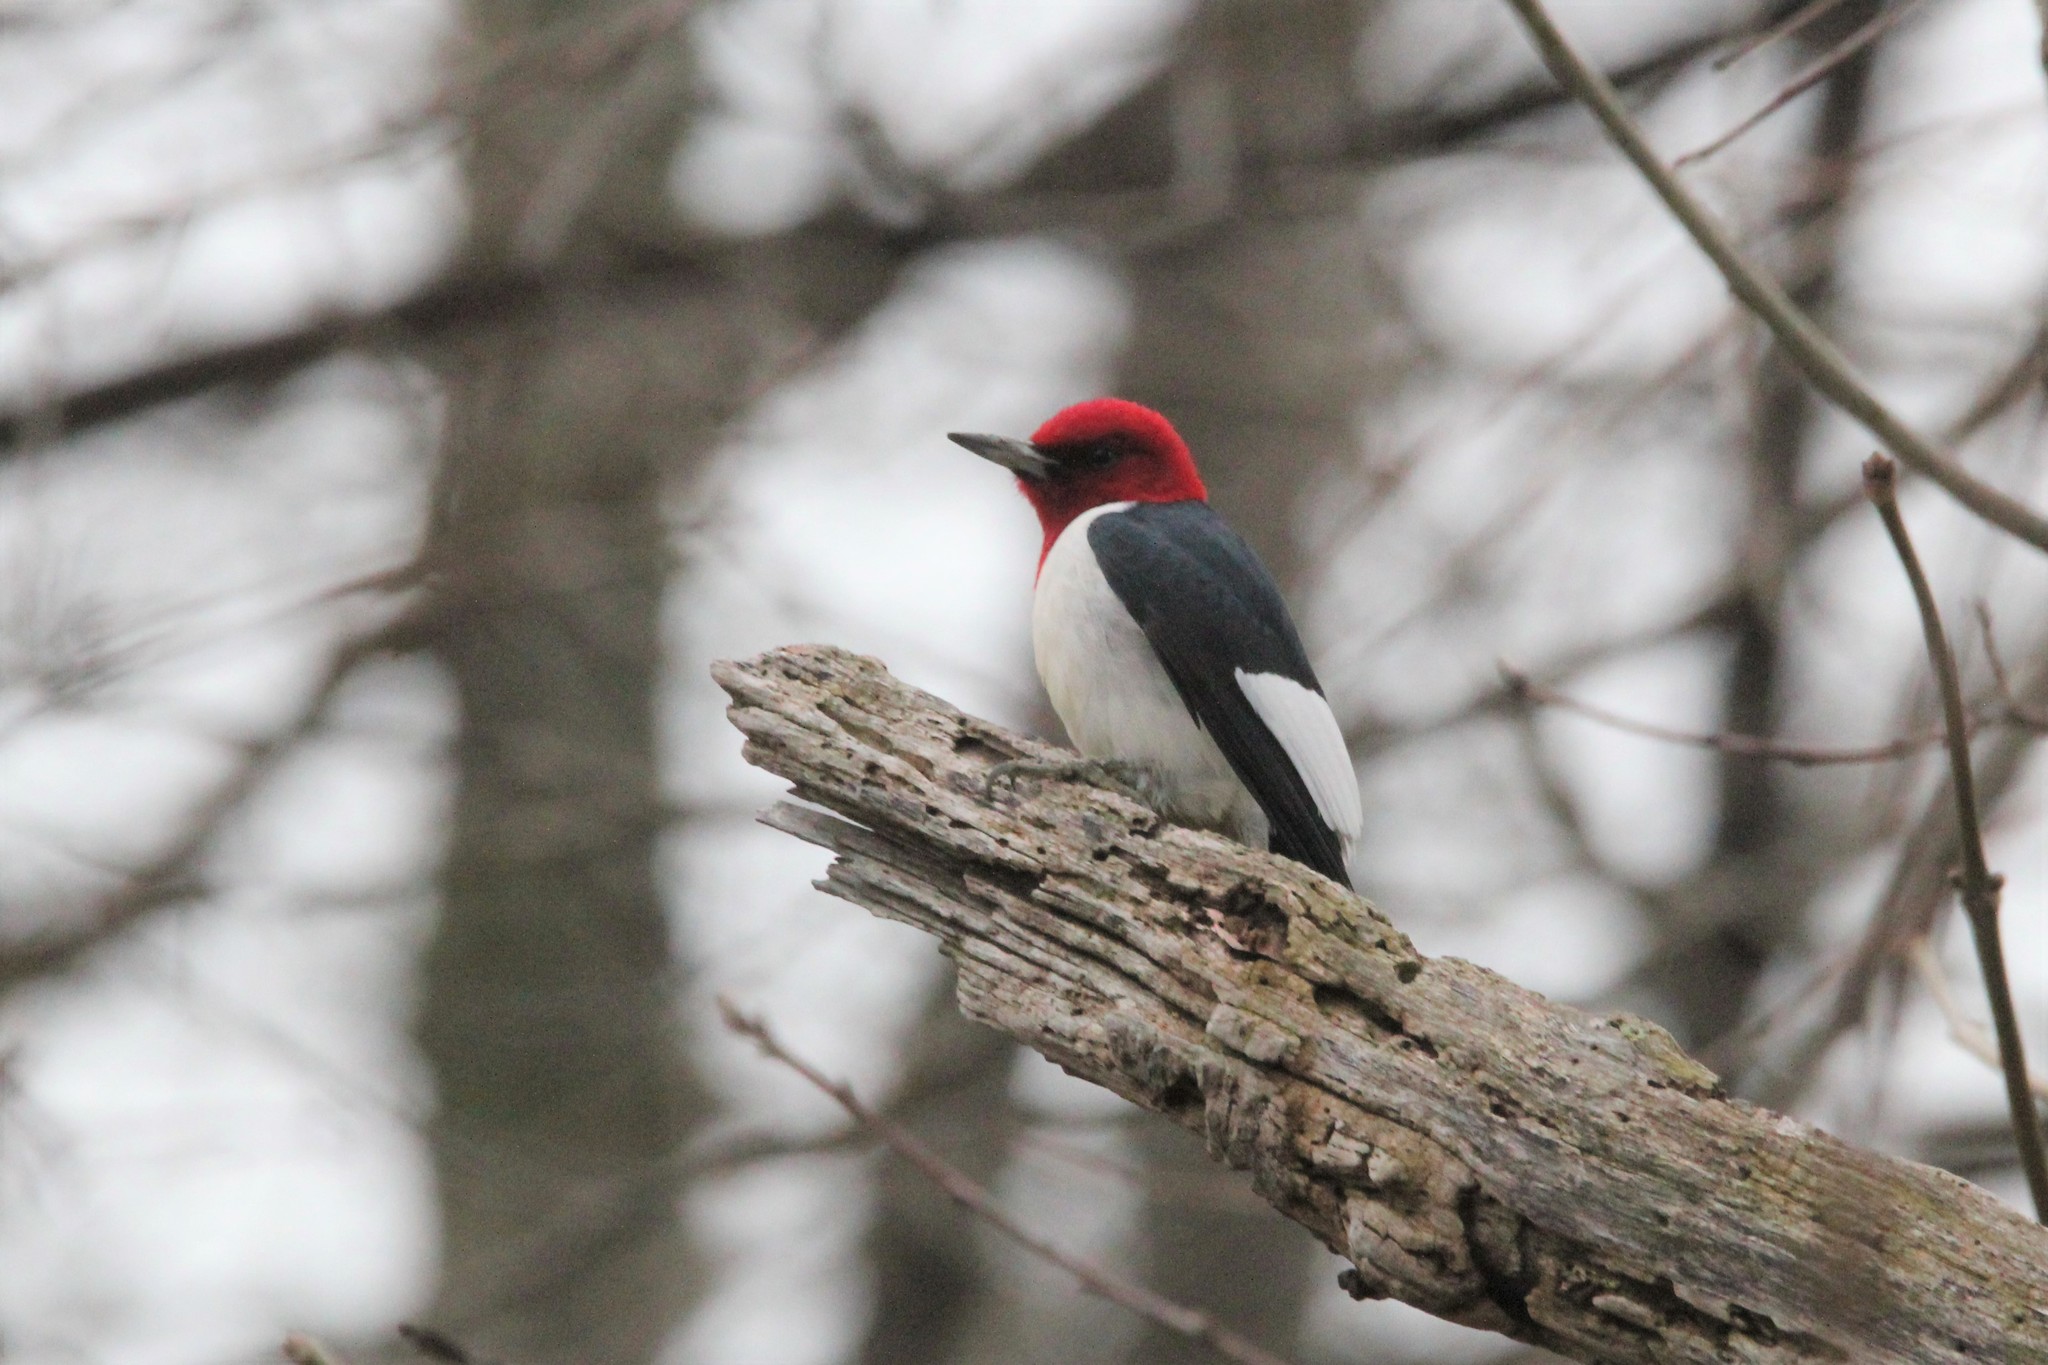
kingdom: Animalia
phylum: Chordata
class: Aves
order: Piciformes
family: Picidae
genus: Melanerpes
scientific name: Melanerpes erythrocephalus
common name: Red-headed woodpecker
